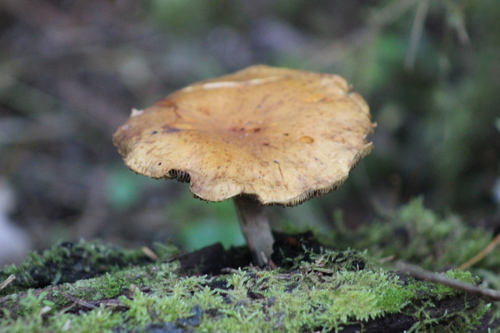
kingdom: Fungi
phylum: Basidiomycota
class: Agaricomycetes
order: Agaricales
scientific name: Agaricales
